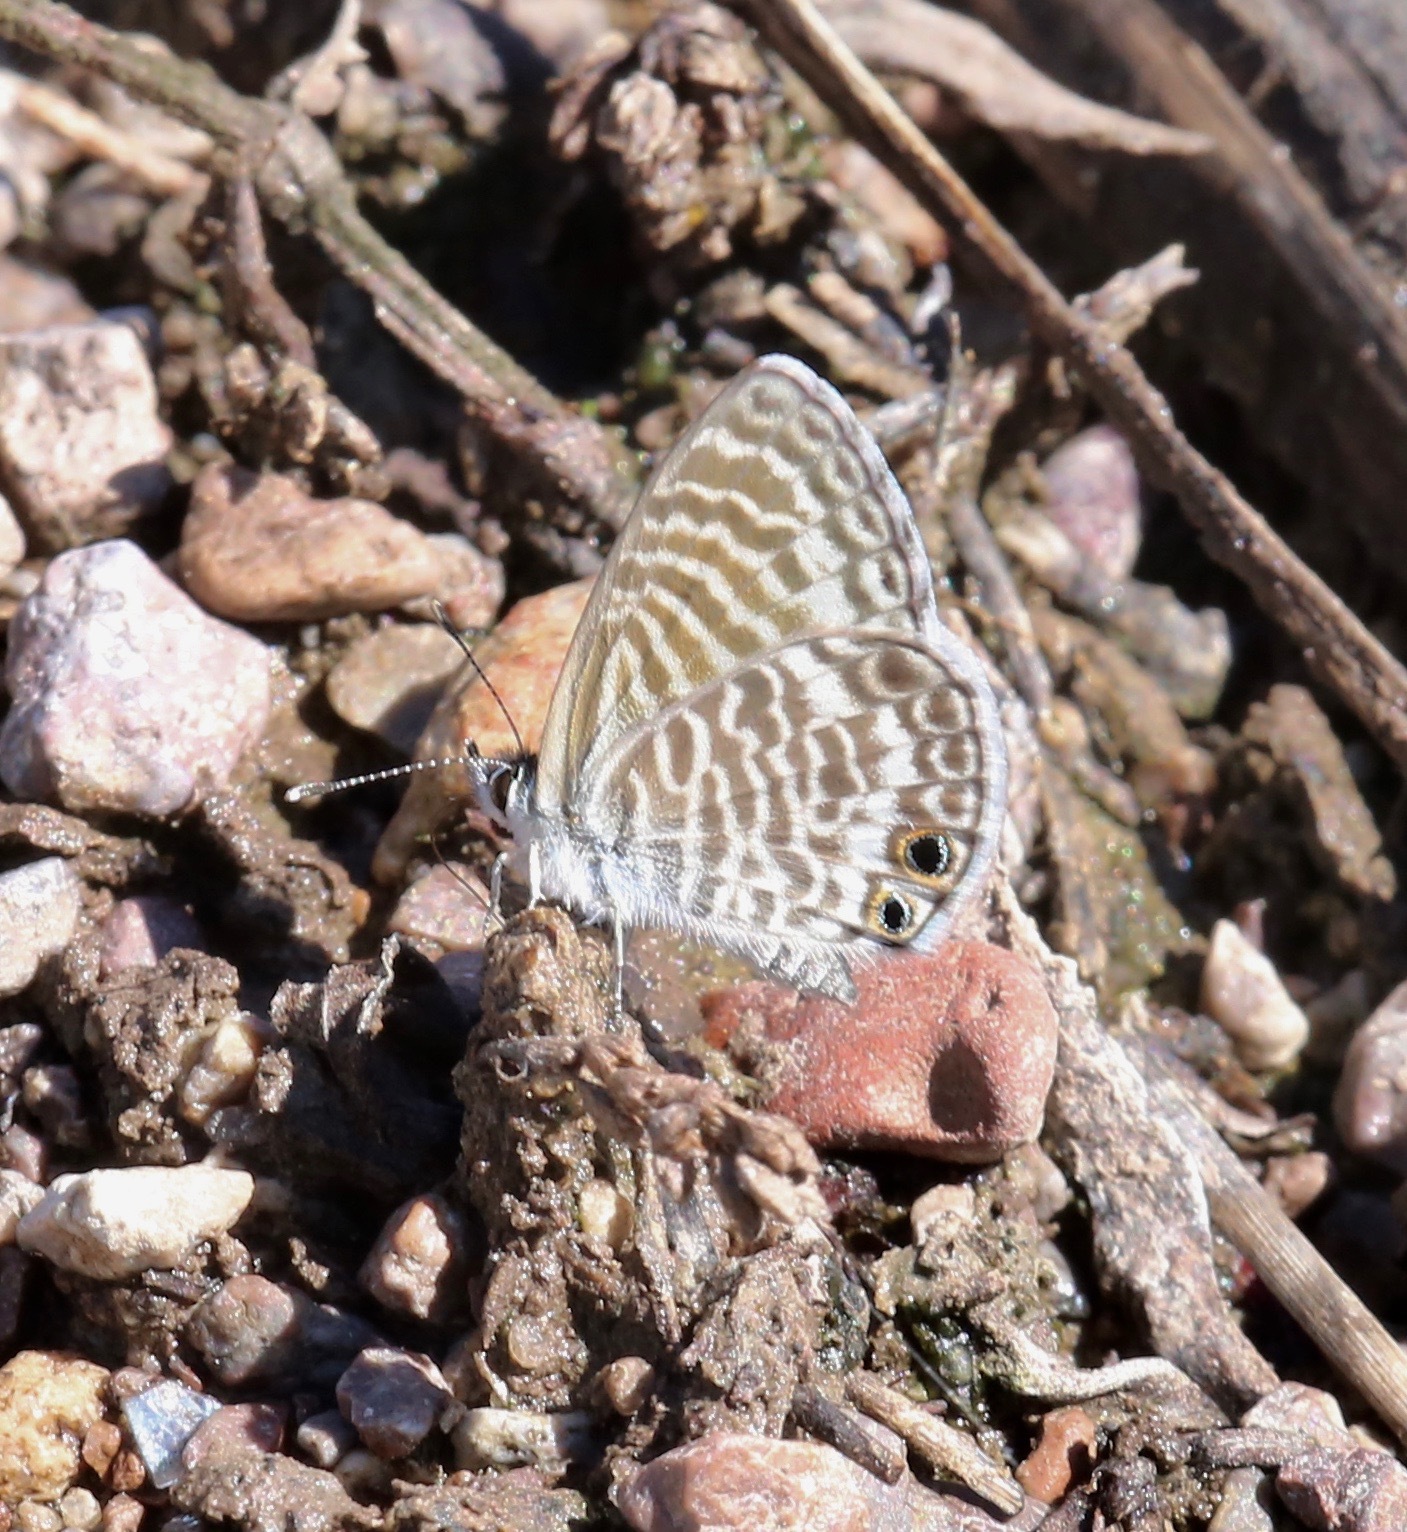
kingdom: Animalia
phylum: Arthropoda
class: Insecta
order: Lepidoptera
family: Lycaenidae
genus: Leptotes
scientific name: Leptotes marina
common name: Marine blue
